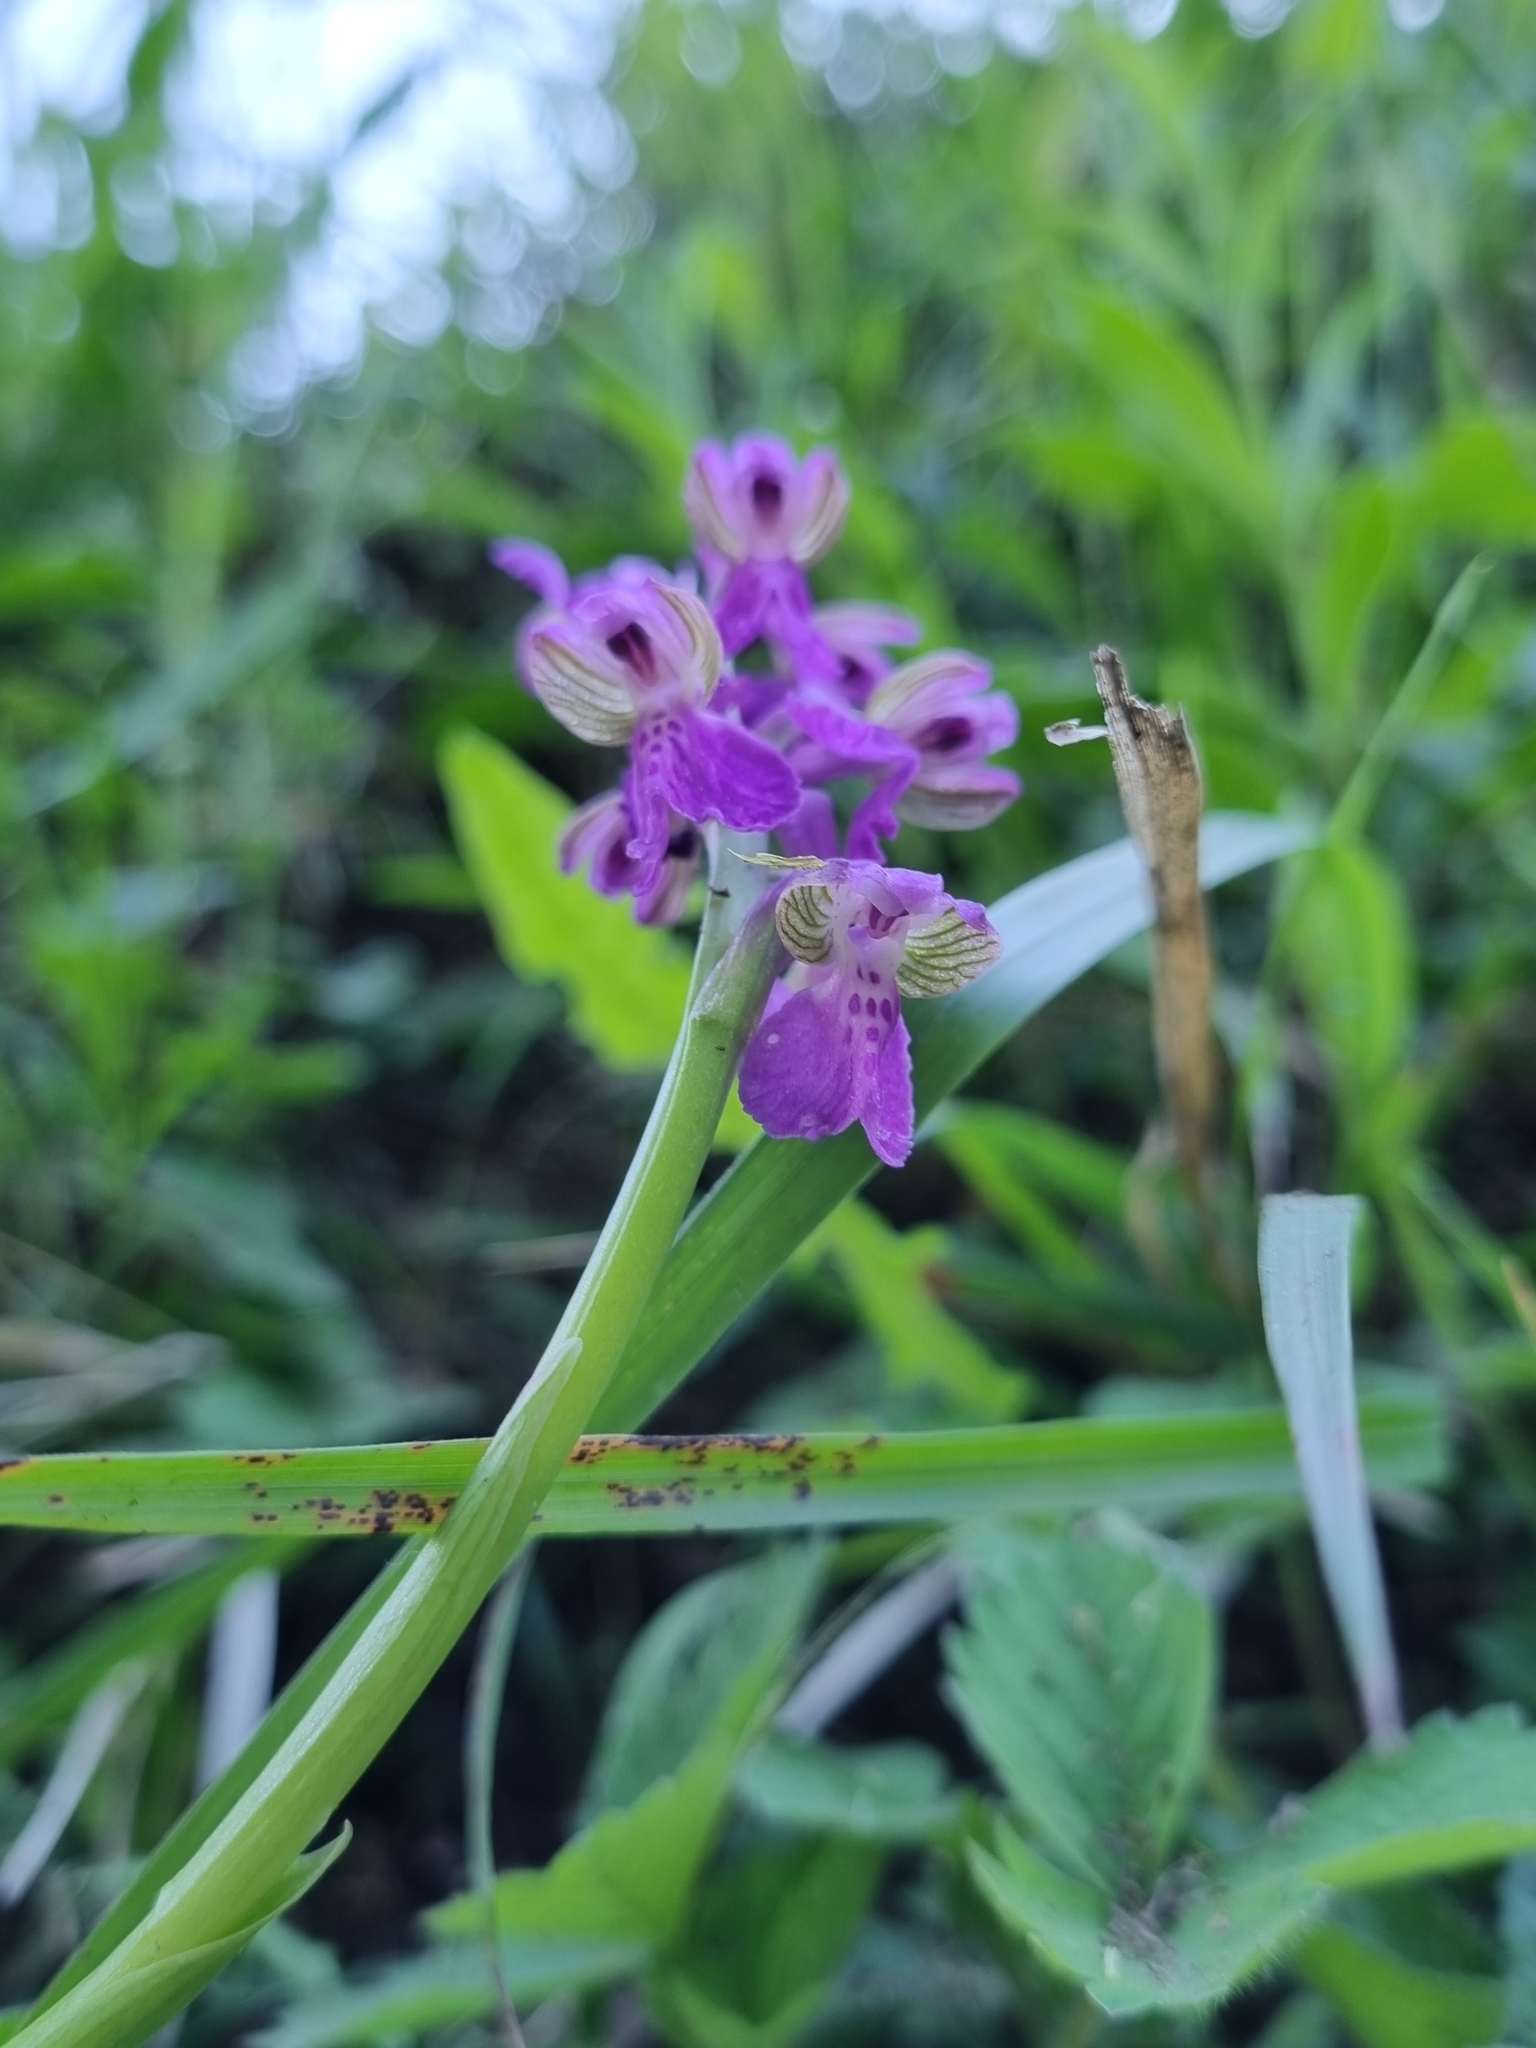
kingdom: Plantae
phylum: Tracheophyta
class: Liliopsida
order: Asparagales
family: Orchidaceae
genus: Anacamptis
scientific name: Anacamptis morio
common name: Green-winged orchid
